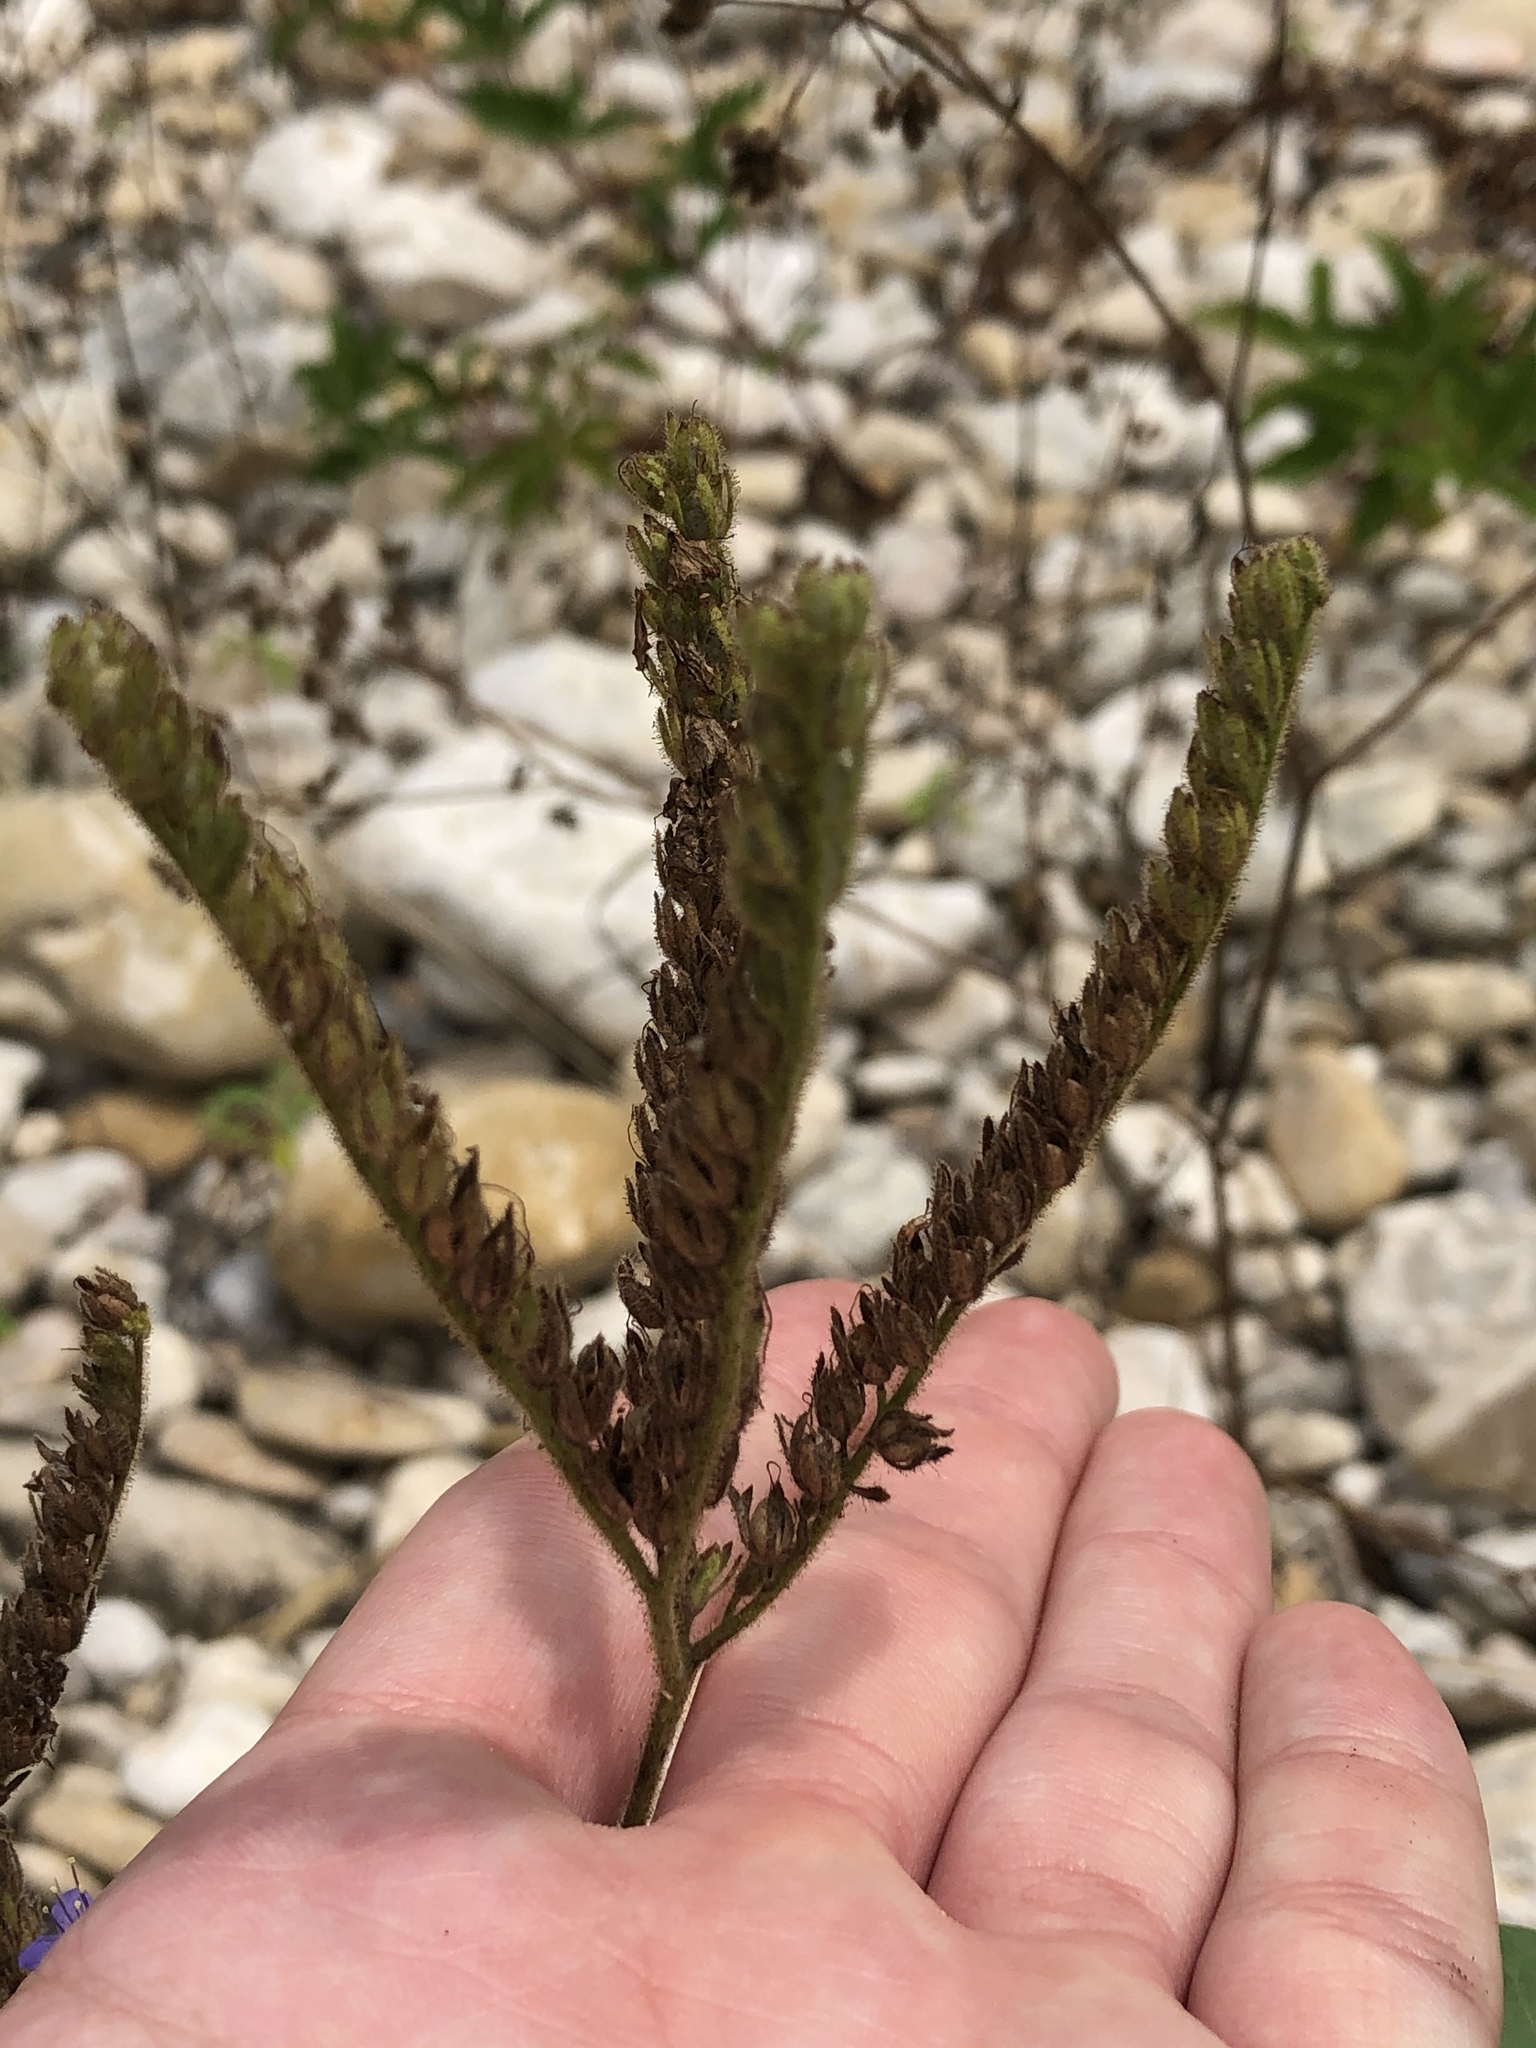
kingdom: Plantae
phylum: Tracheophyta
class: Magnoliopsida
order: Boraginales
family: Hydrophyllaceae
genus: Phacelia
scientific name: Phacelia congesta
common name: Blue curls
